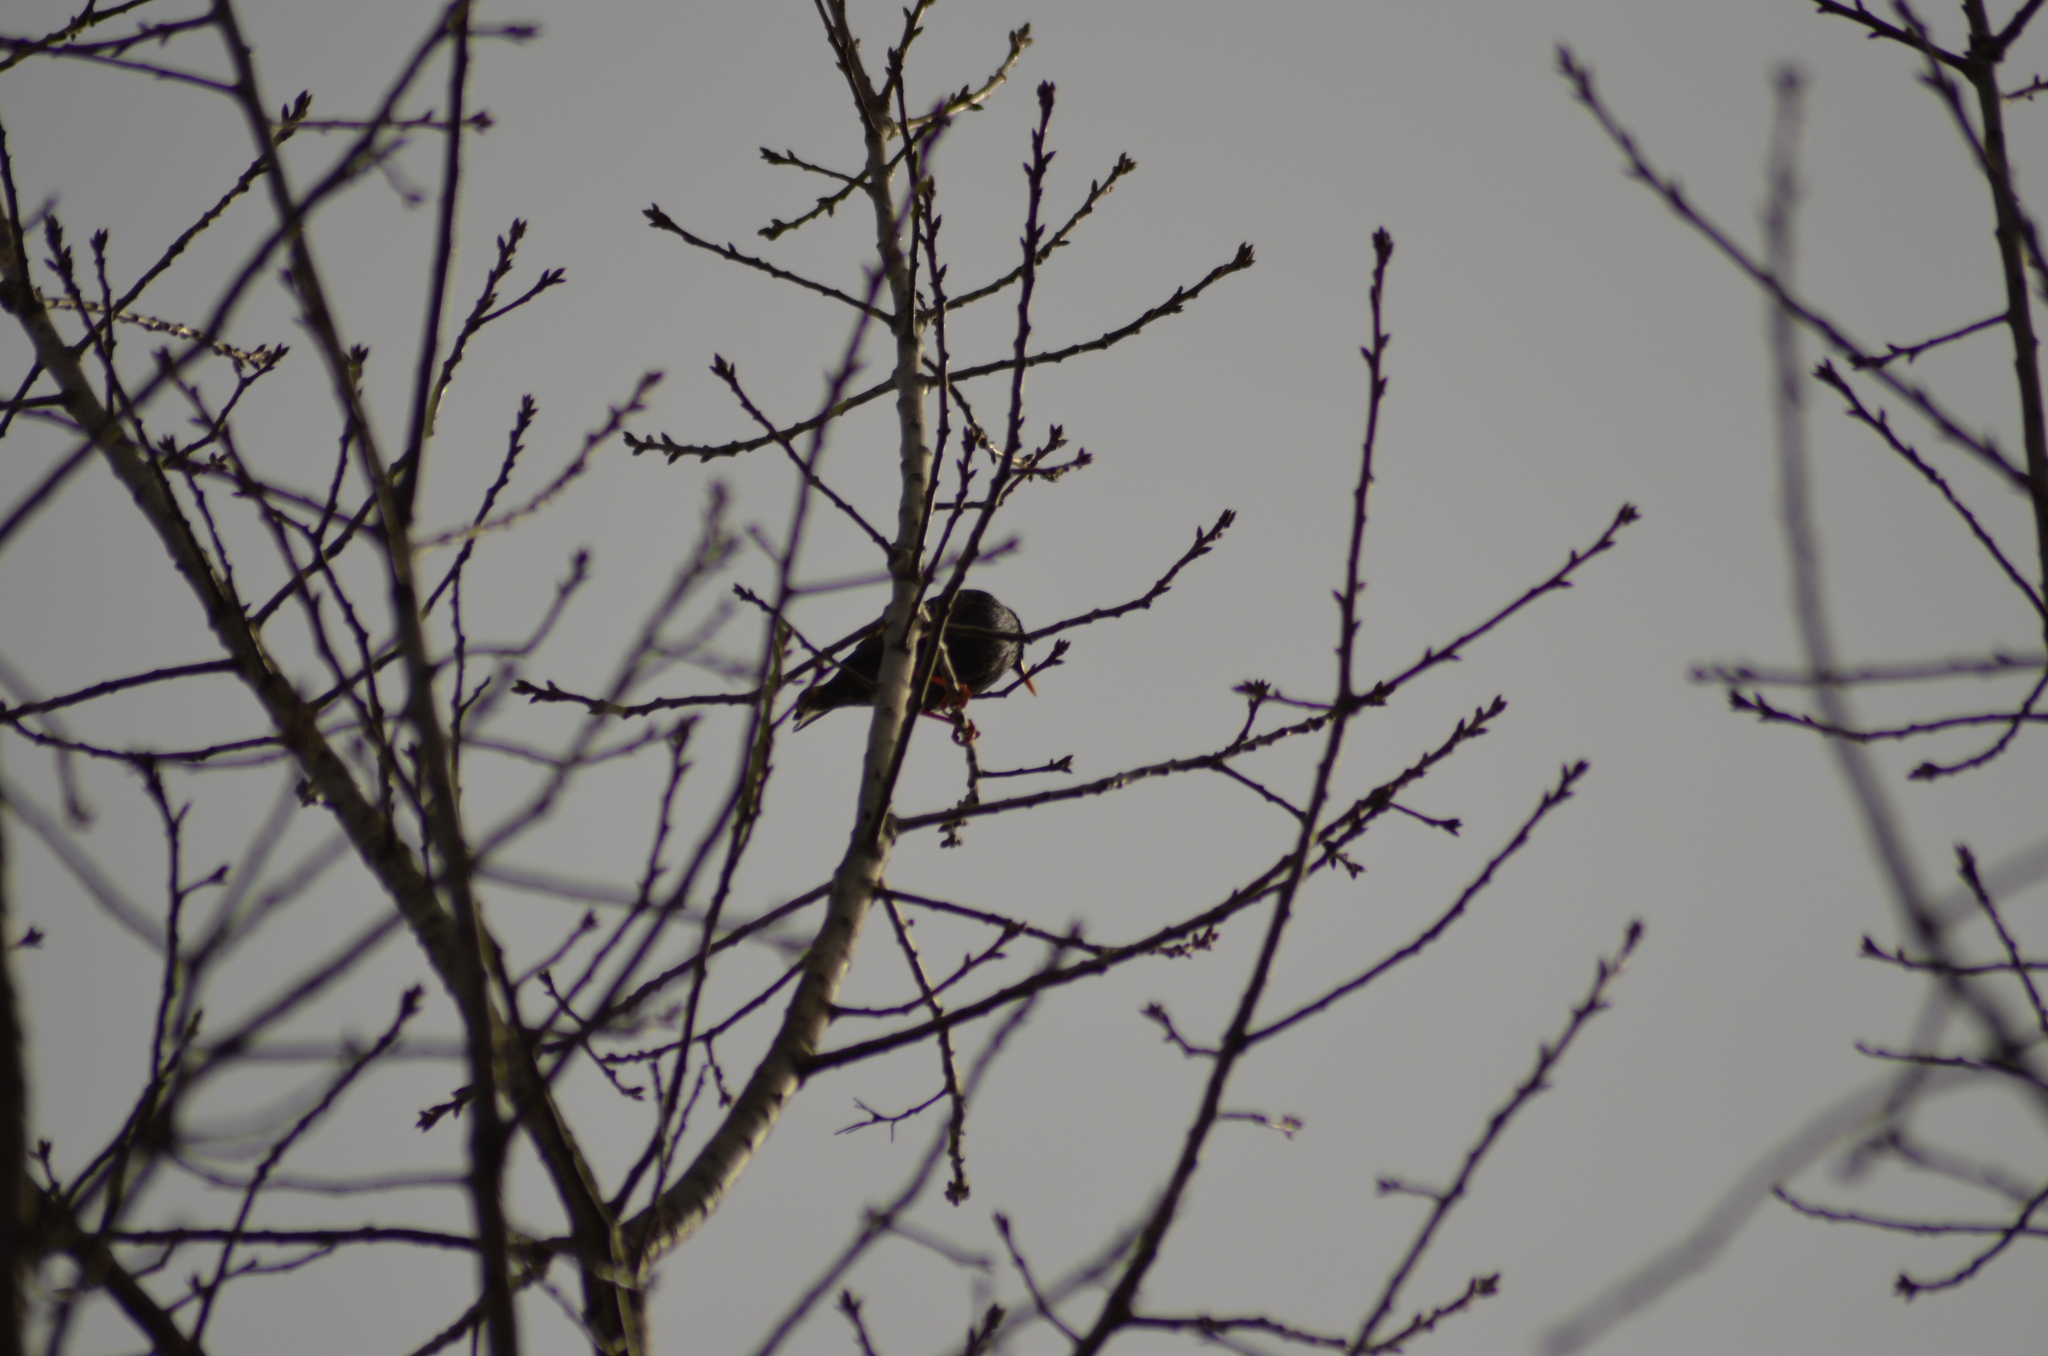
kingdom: Animalia
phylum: Chordata
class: Aves
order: Passeriformes
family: Sturnidae
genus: Sturnus
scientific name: Sturnus unicolor
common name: Spotless starling
